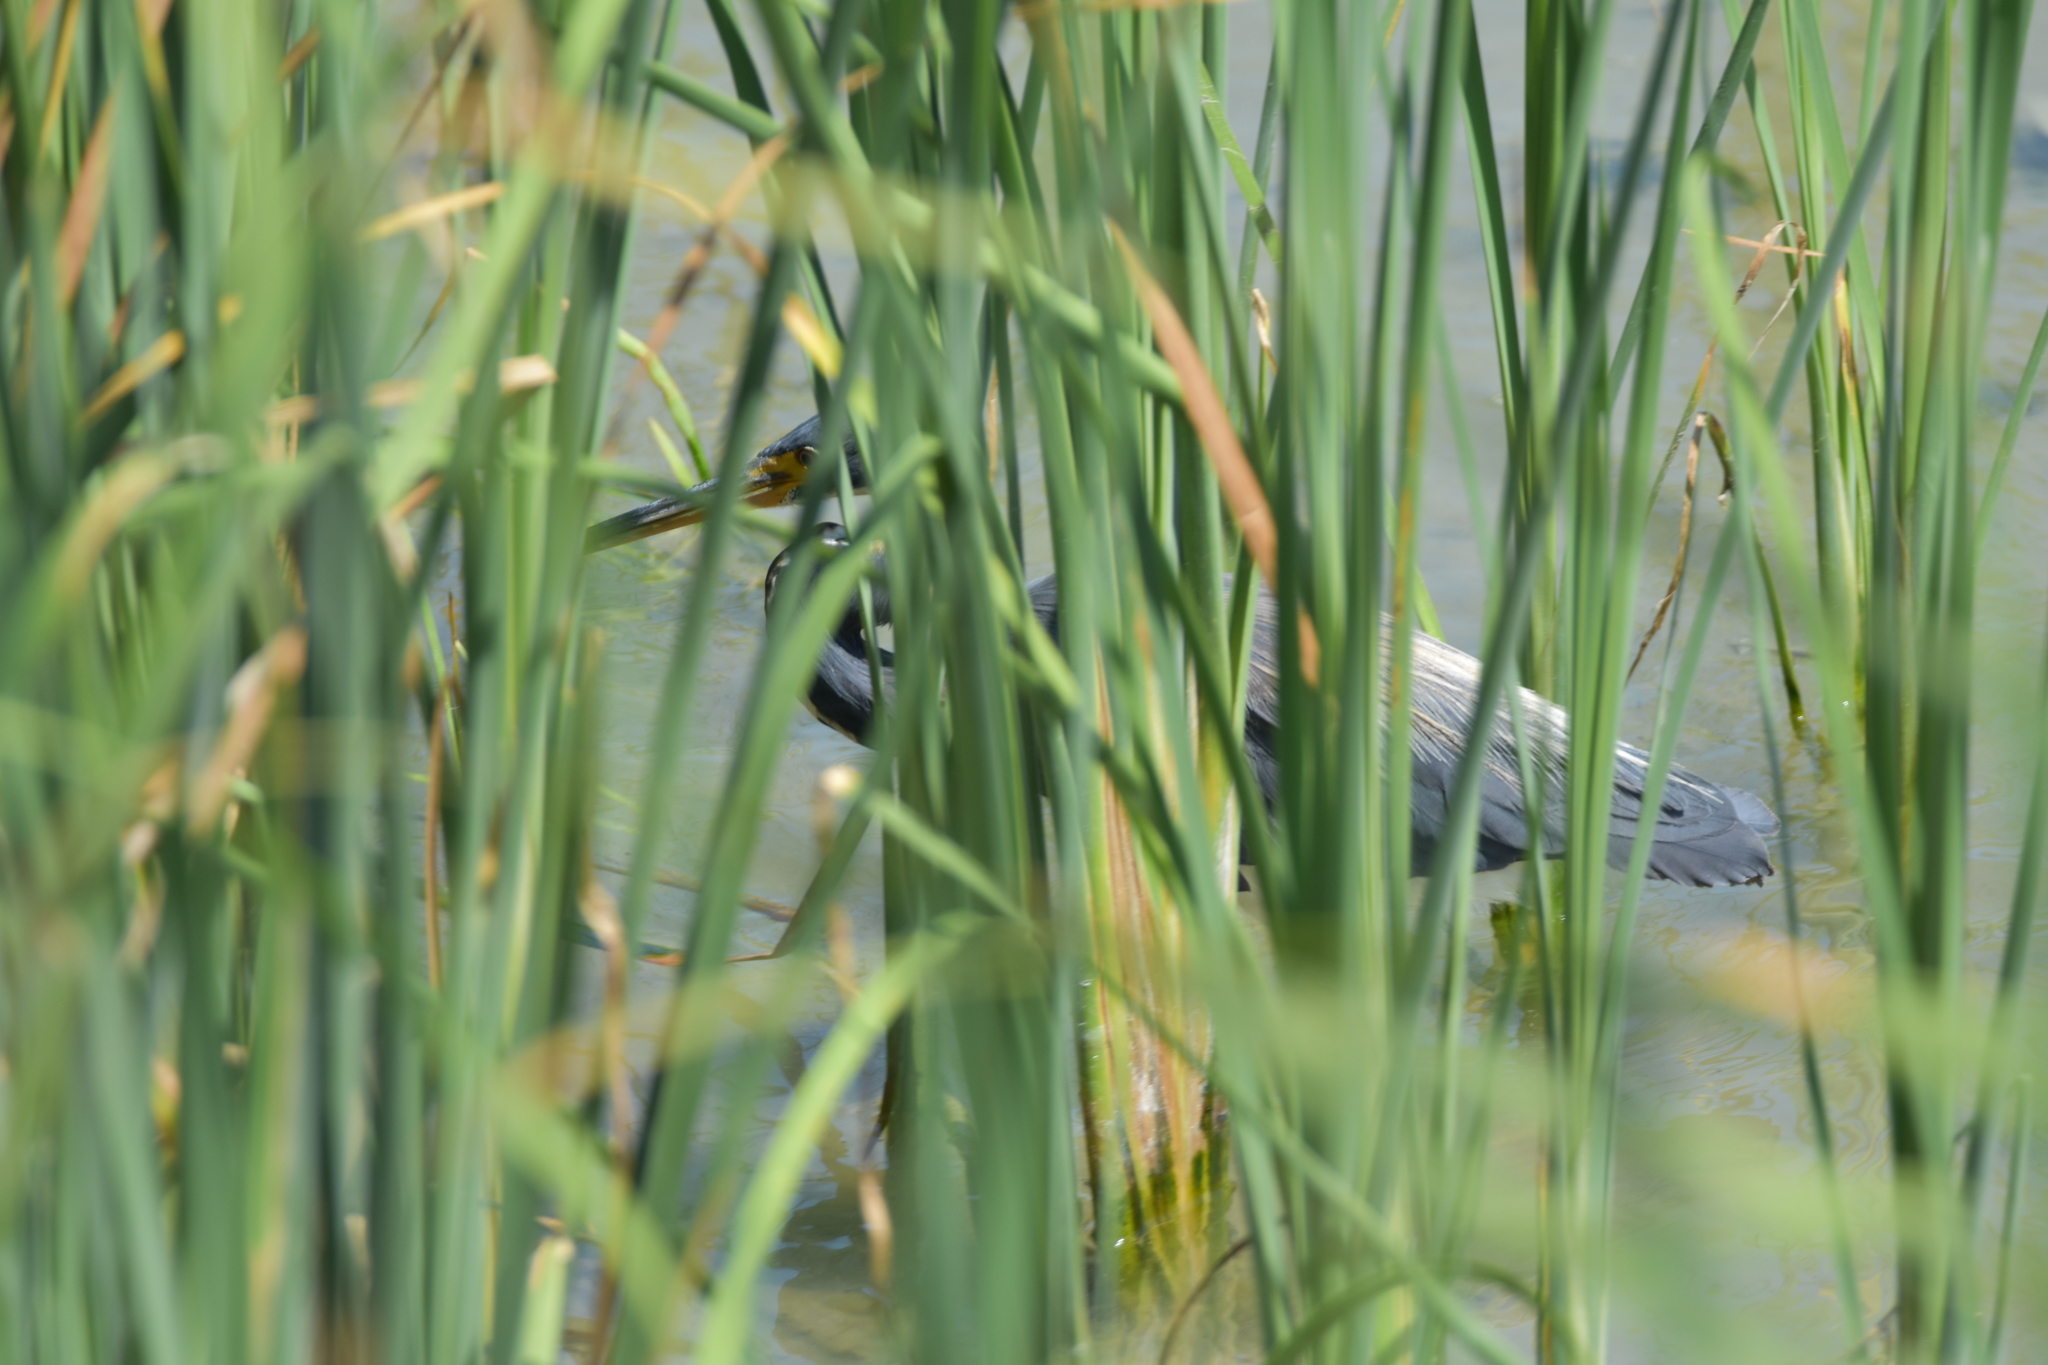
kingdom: Animalia
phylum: Chordata
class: Aves
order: Pelecaniformes
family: Ardeidae
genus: Egretta
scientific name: Egretta tricolor
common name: Tricolored heron
